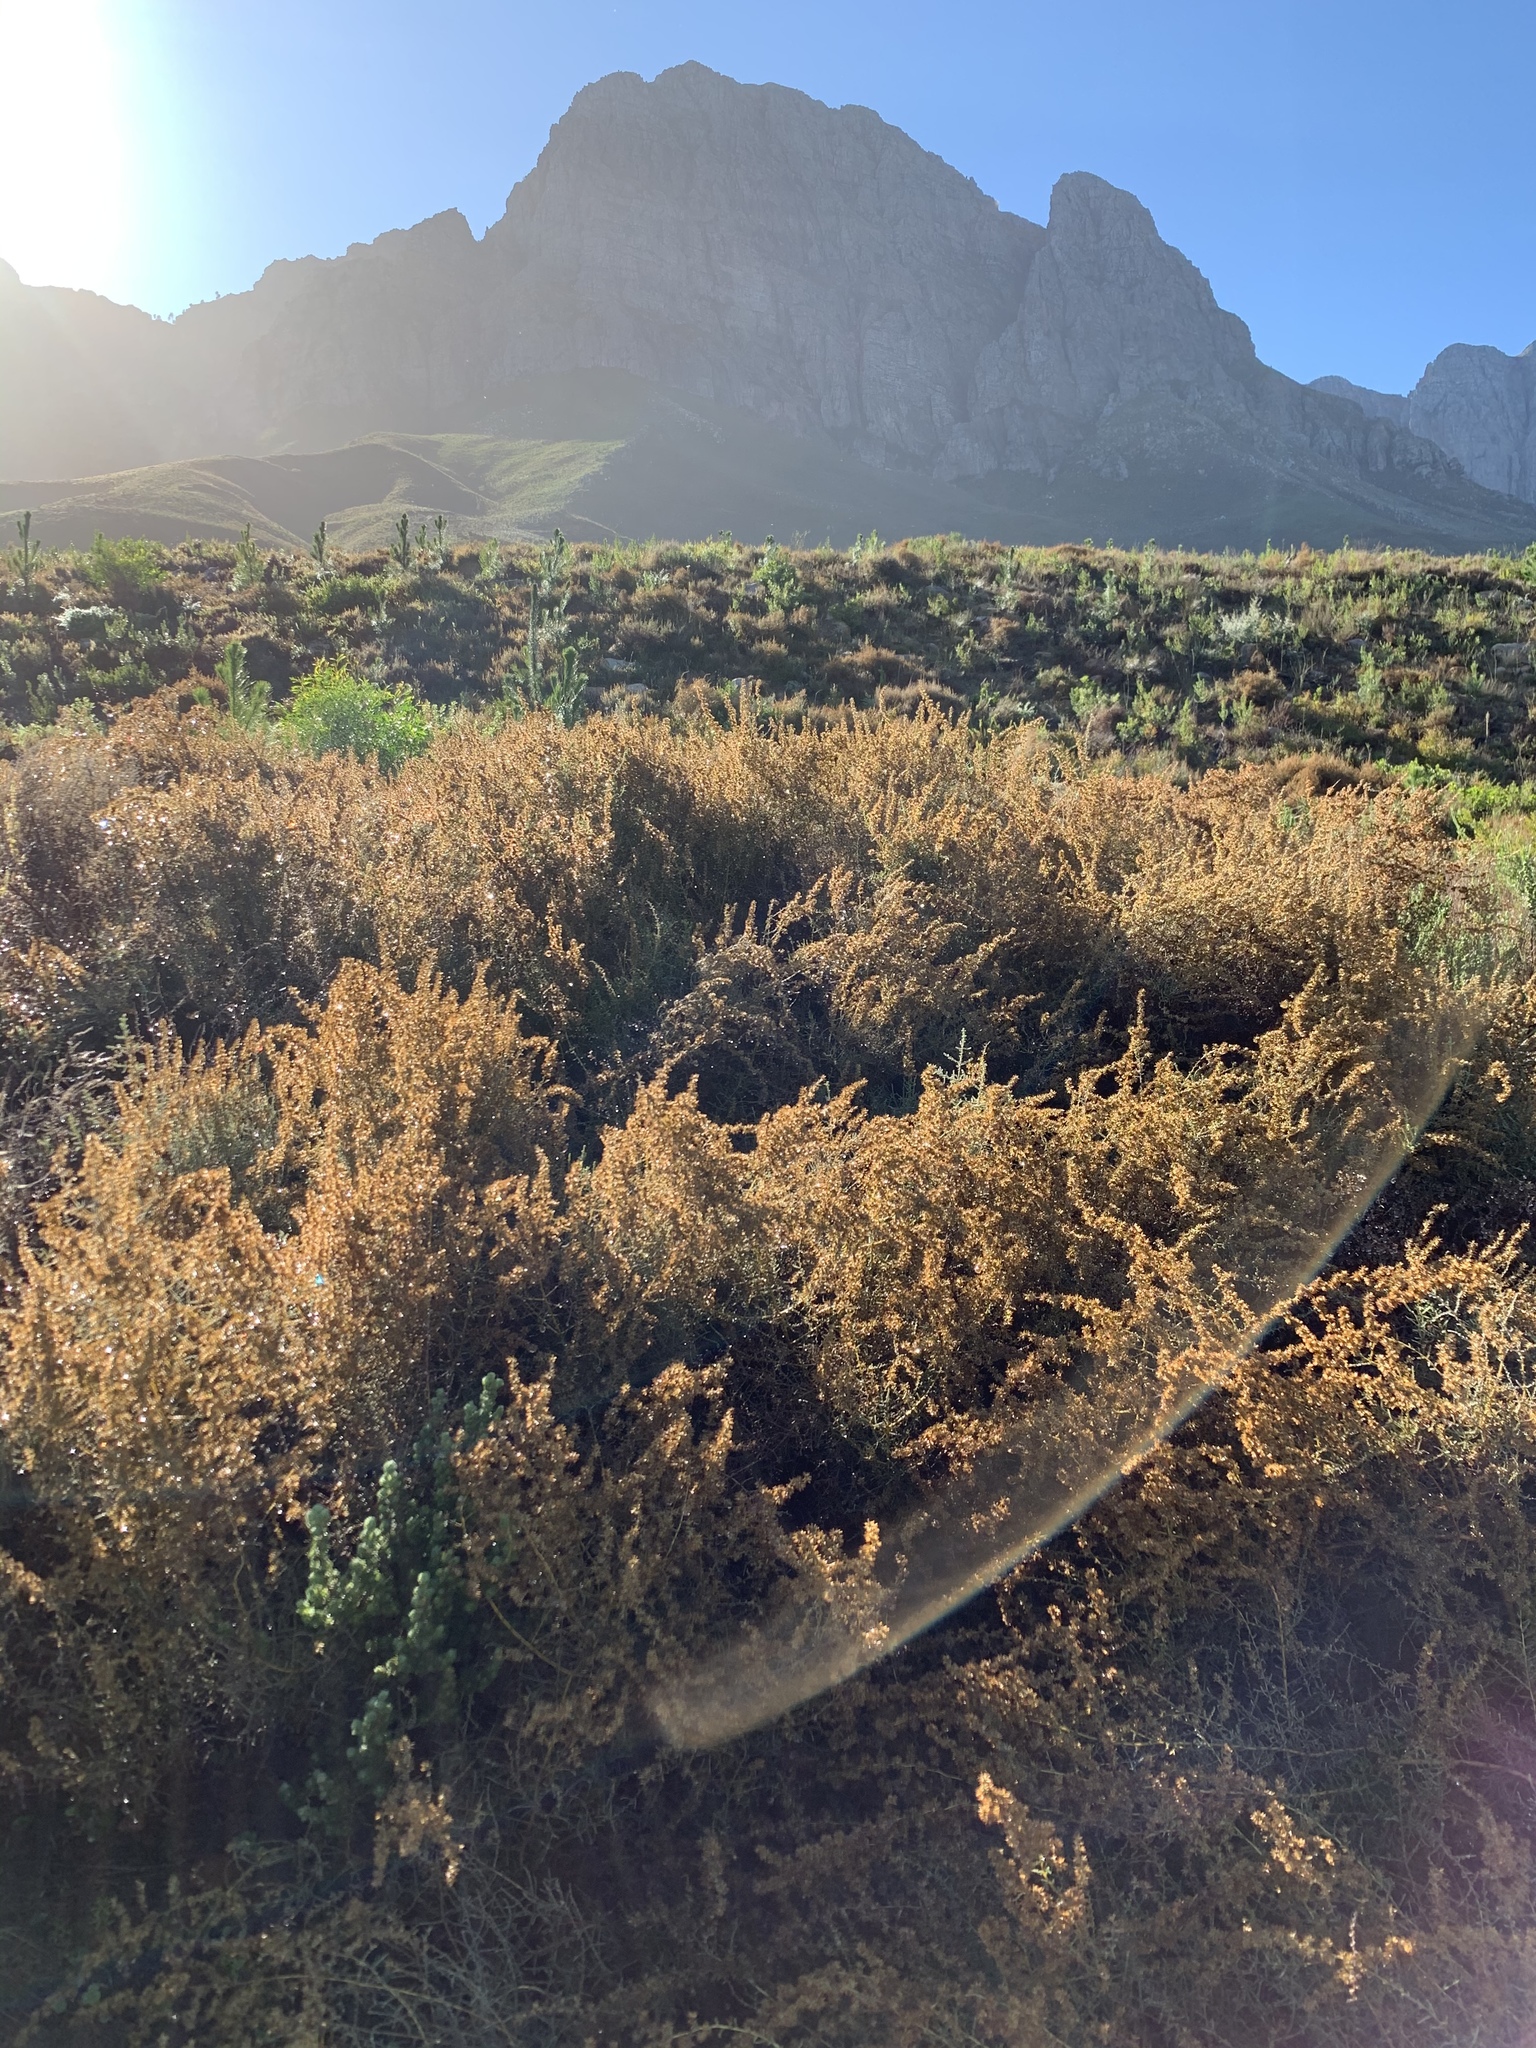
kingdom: Plantae
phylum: Tracheophyta
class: Magnoliopsida
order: Asterales
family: Asteraceae
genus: Seriphium
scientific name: Seriphium plumosum
